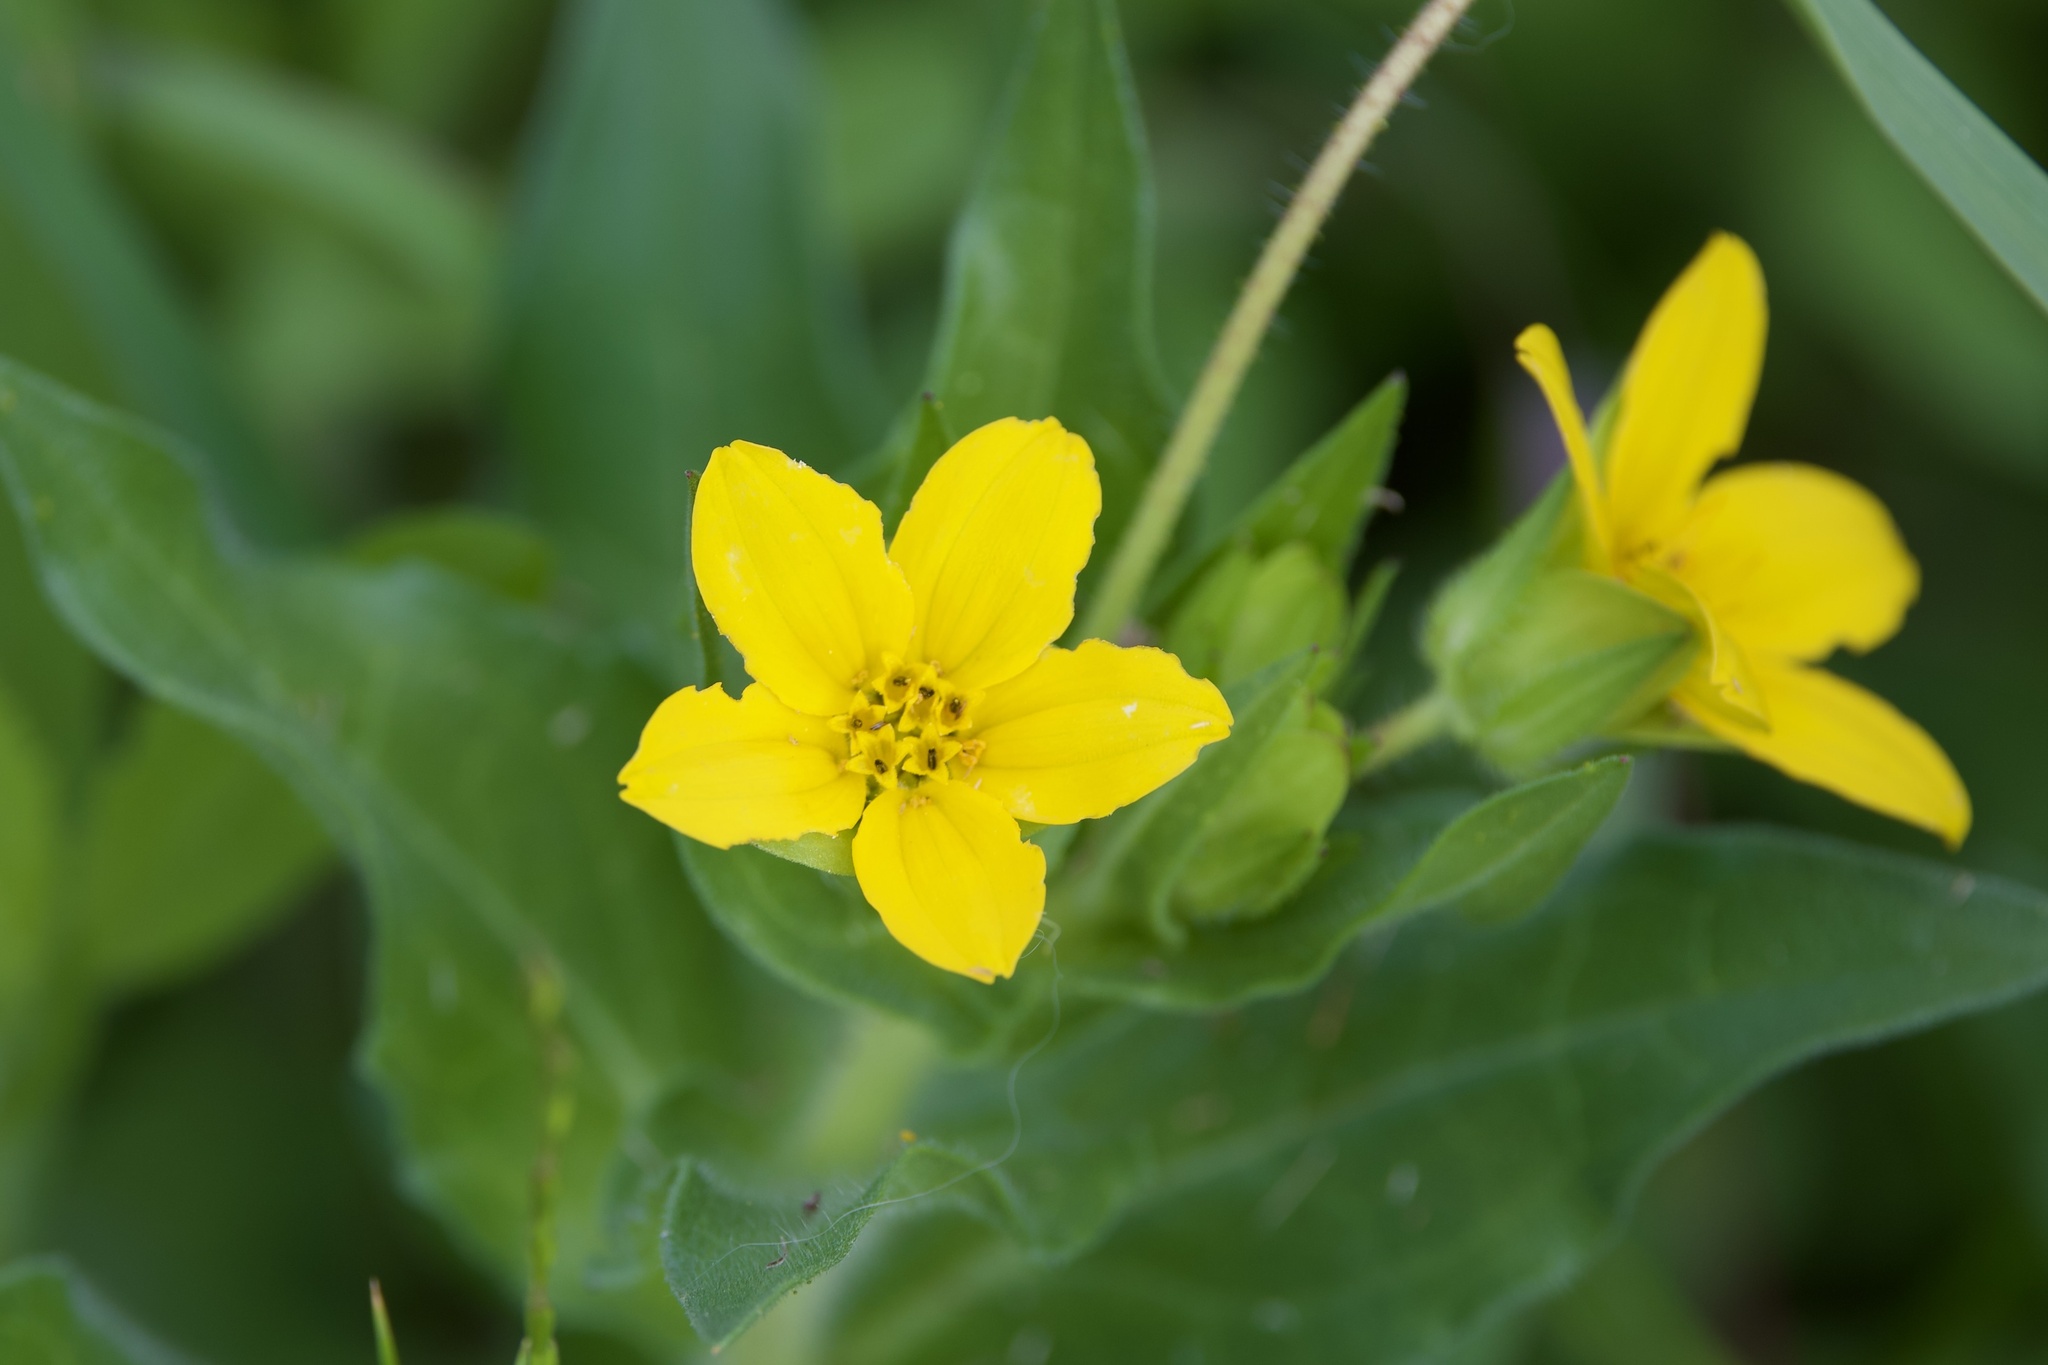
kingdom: Plantae
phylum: Tracheophyta
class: Magnoliopsida
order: Asterales
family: Asteraceae
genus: Lindheimera
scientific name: Lindheimera texana
